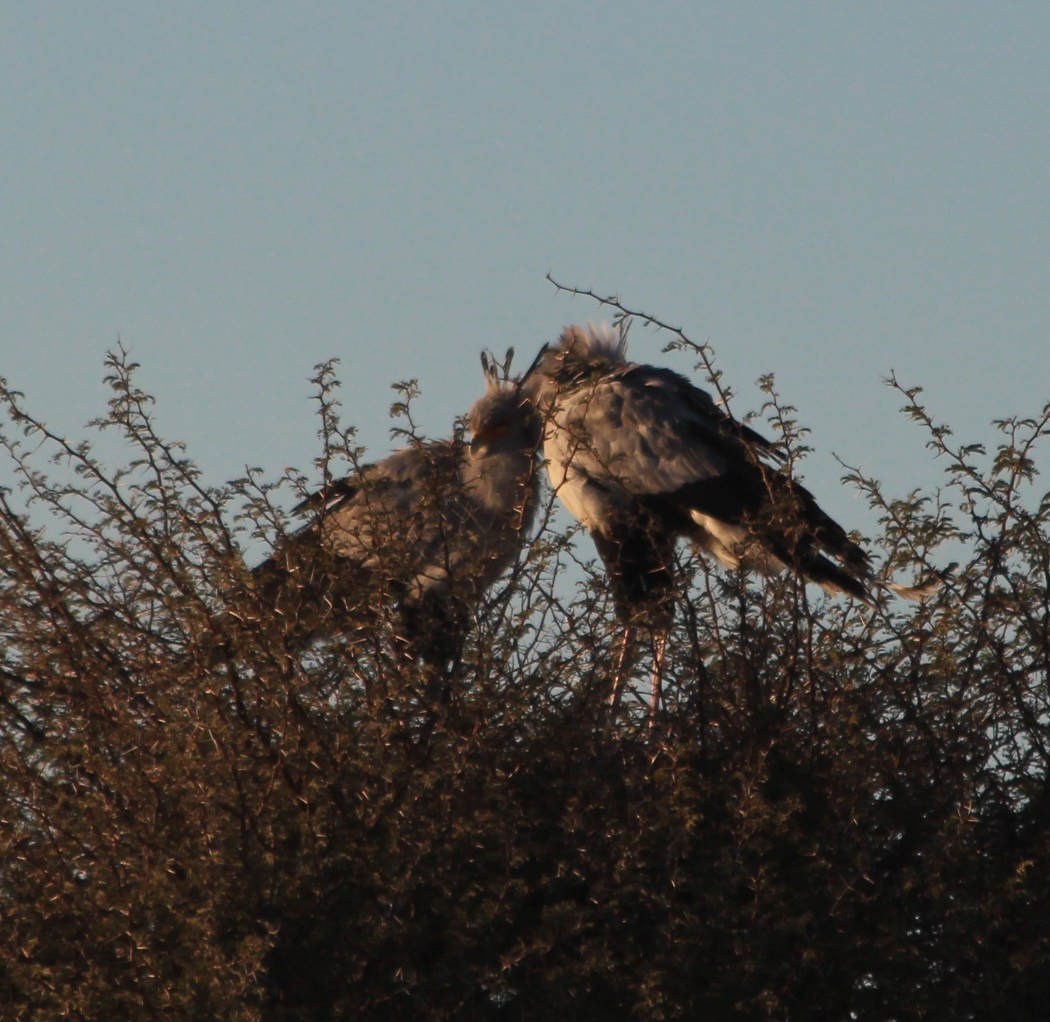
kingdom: Animalia
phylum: Chordata
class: Aves
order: Accipitriformes
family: Sagittariidae
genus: Sagittarius
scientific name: Sagittarius serpentarius
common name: Secretarybird
